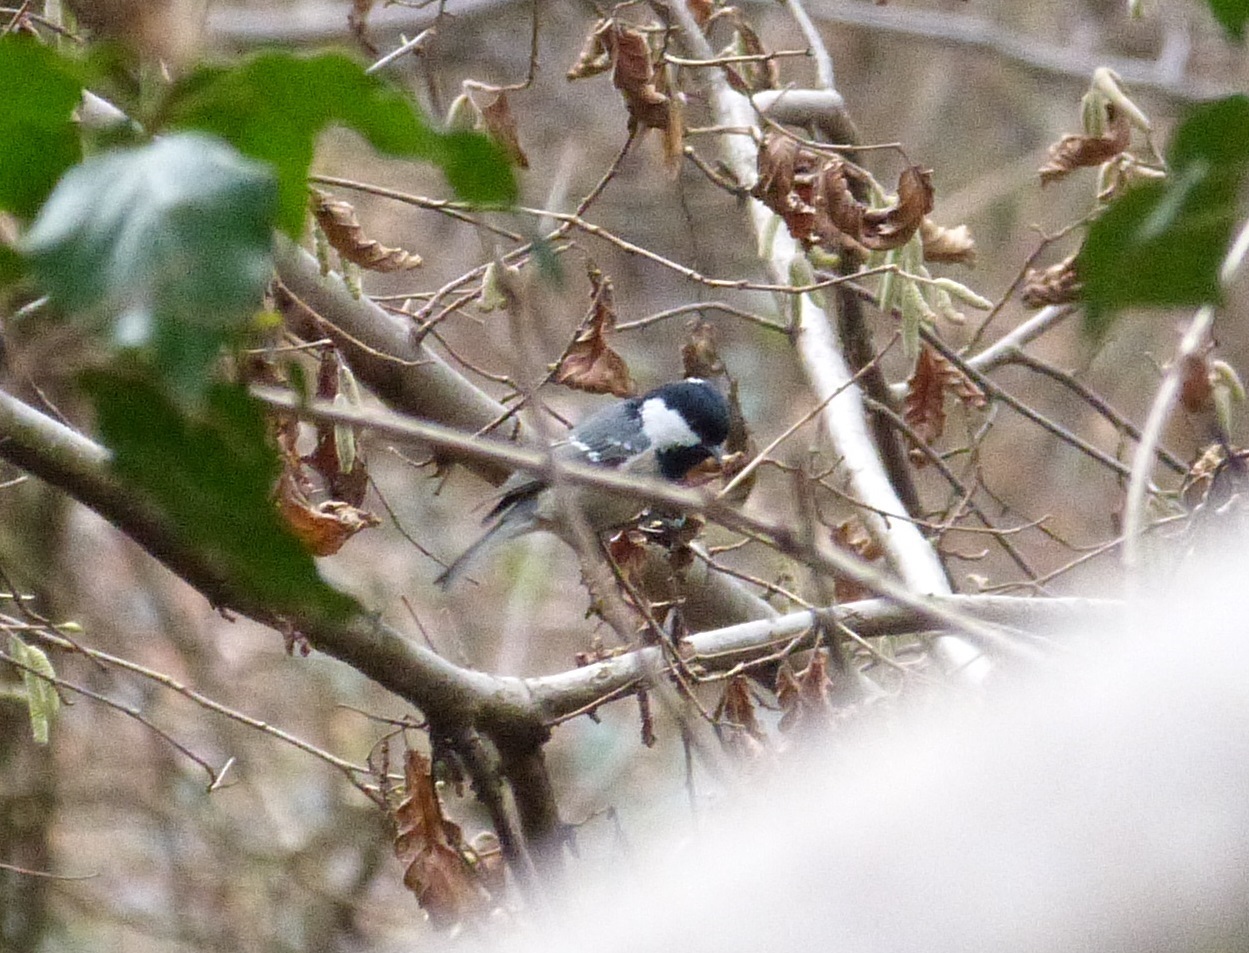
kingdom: Animalia
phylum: Chordata
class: Aves
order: Passeriformes
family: Paridae
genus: Periparus
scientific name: Periparus ater
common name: Coal tit
